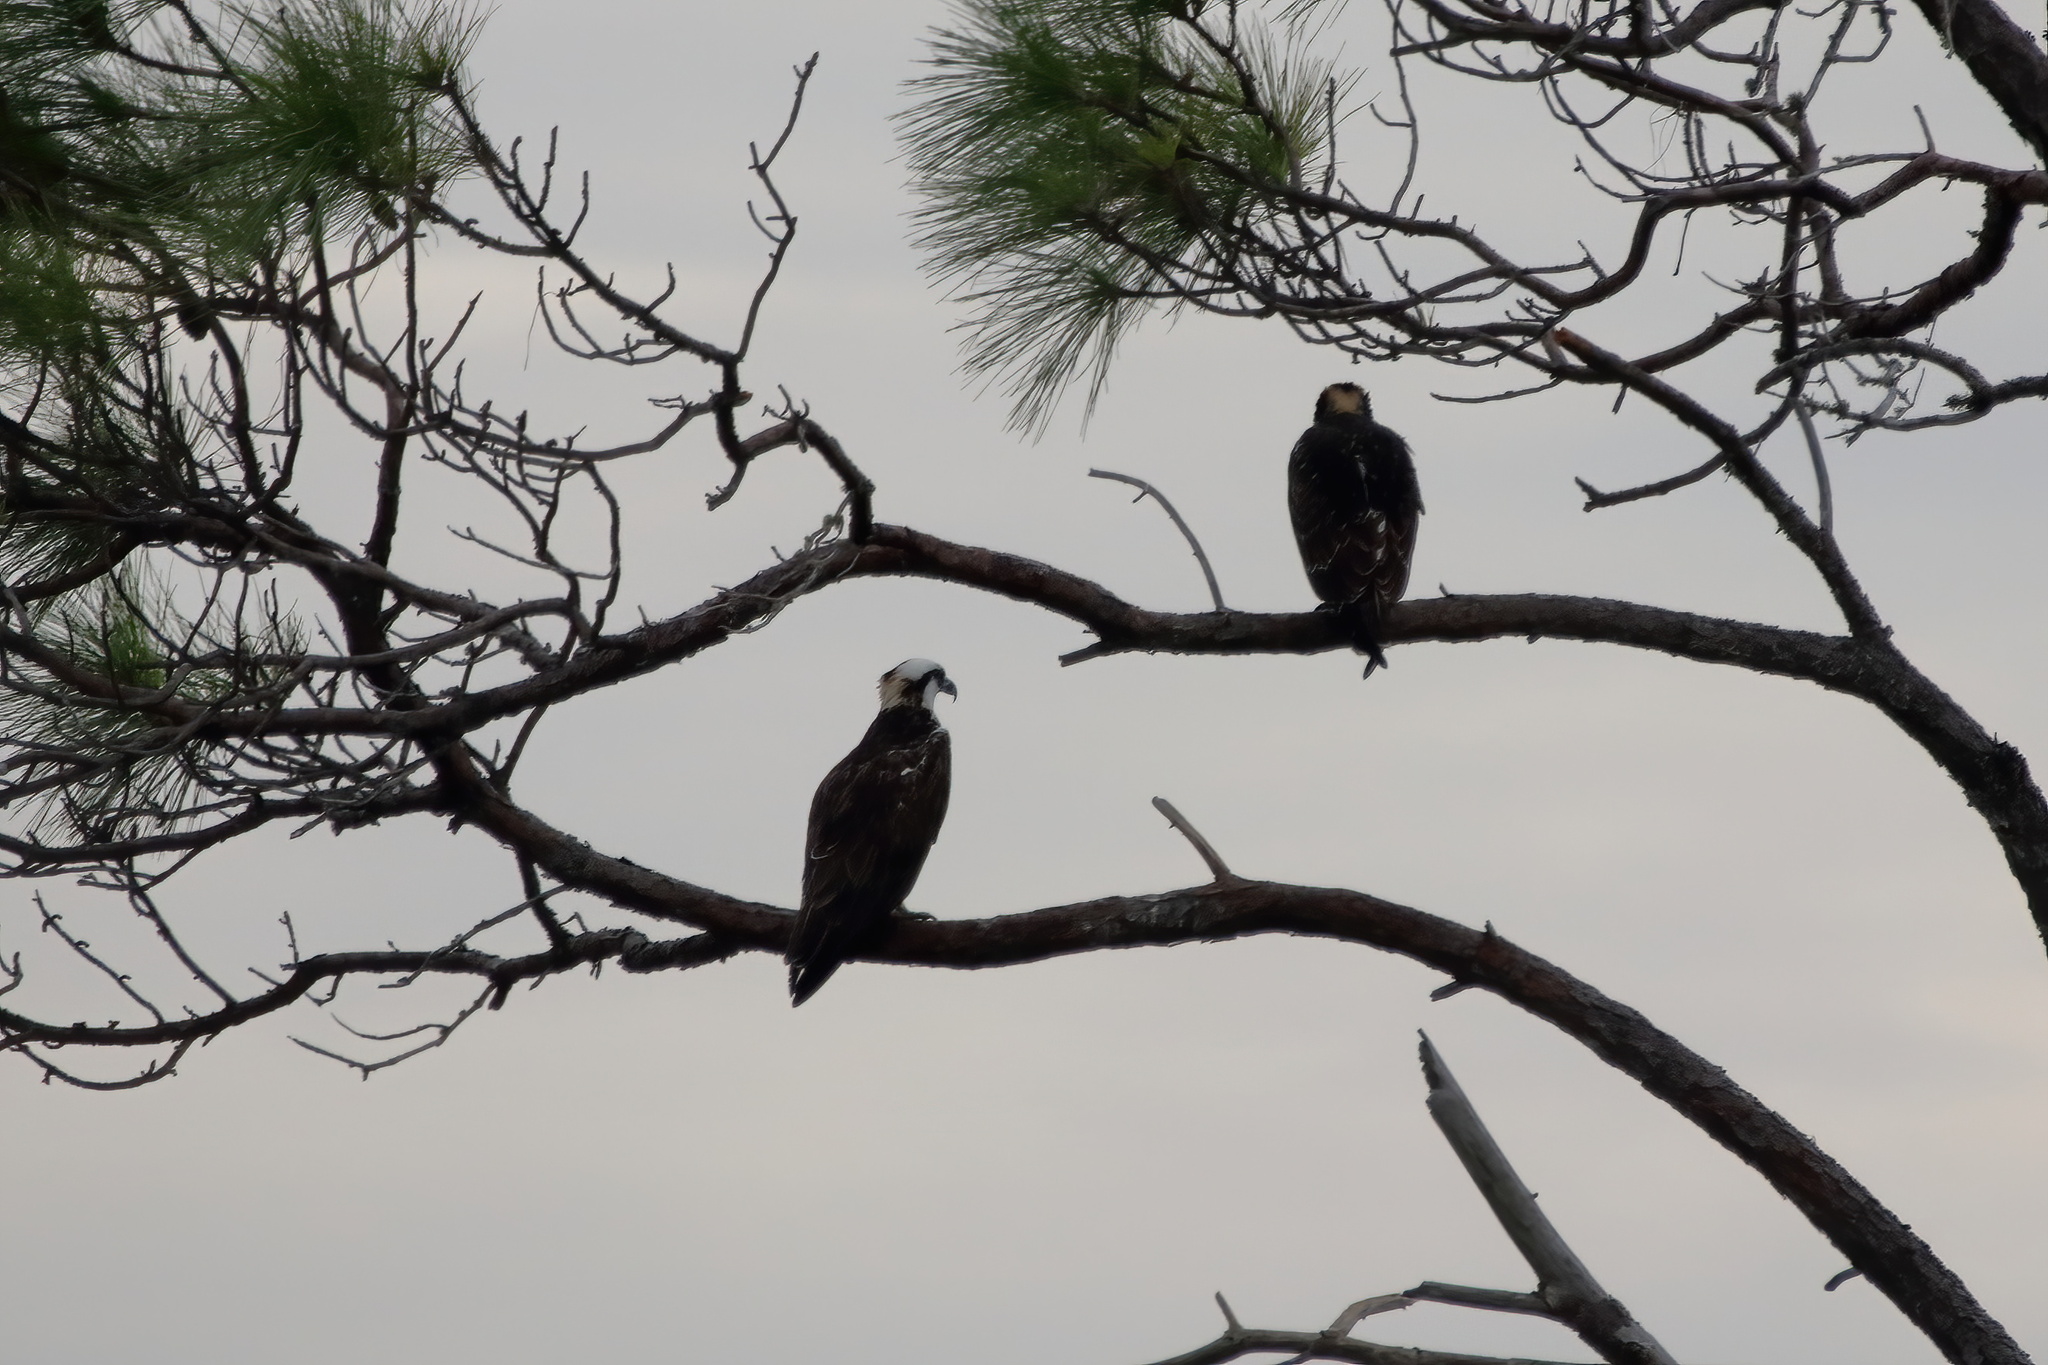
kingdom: Animalia
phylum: Chordata
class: Aves
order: Accipitriformes
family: Pandionidae
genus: Pandion
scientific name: Pandion haliaetus
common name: Osprey
